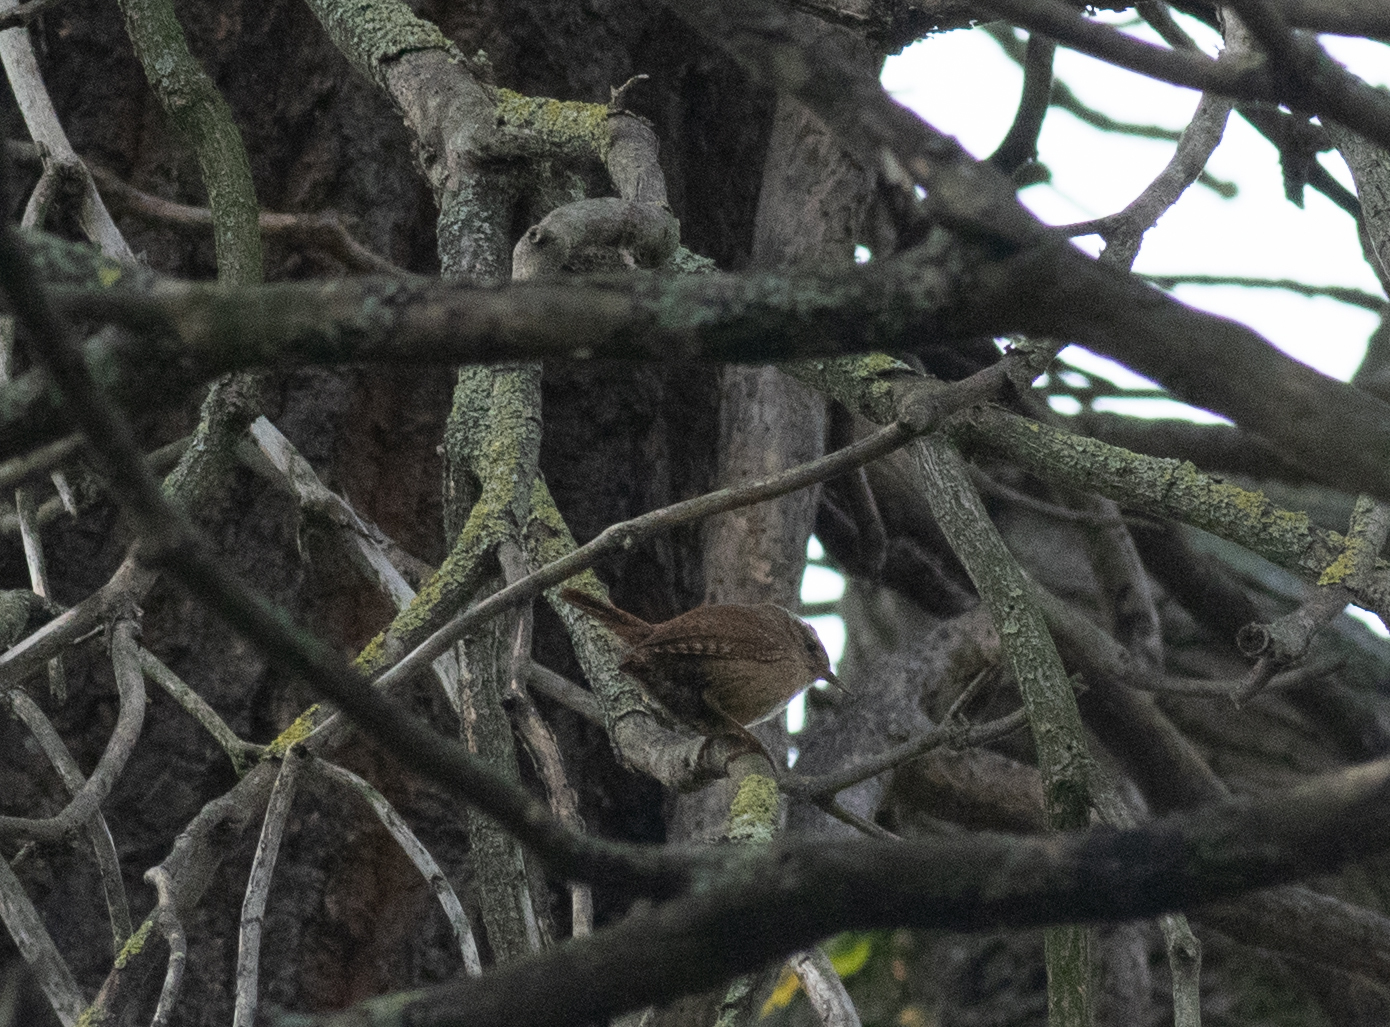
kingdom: Animalia
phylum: Chordata
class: Aves
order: Passeriformes
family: Troglodytidae
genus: Troglodytes
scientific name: Troglodytes troglodytes
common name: Eurasian wren
